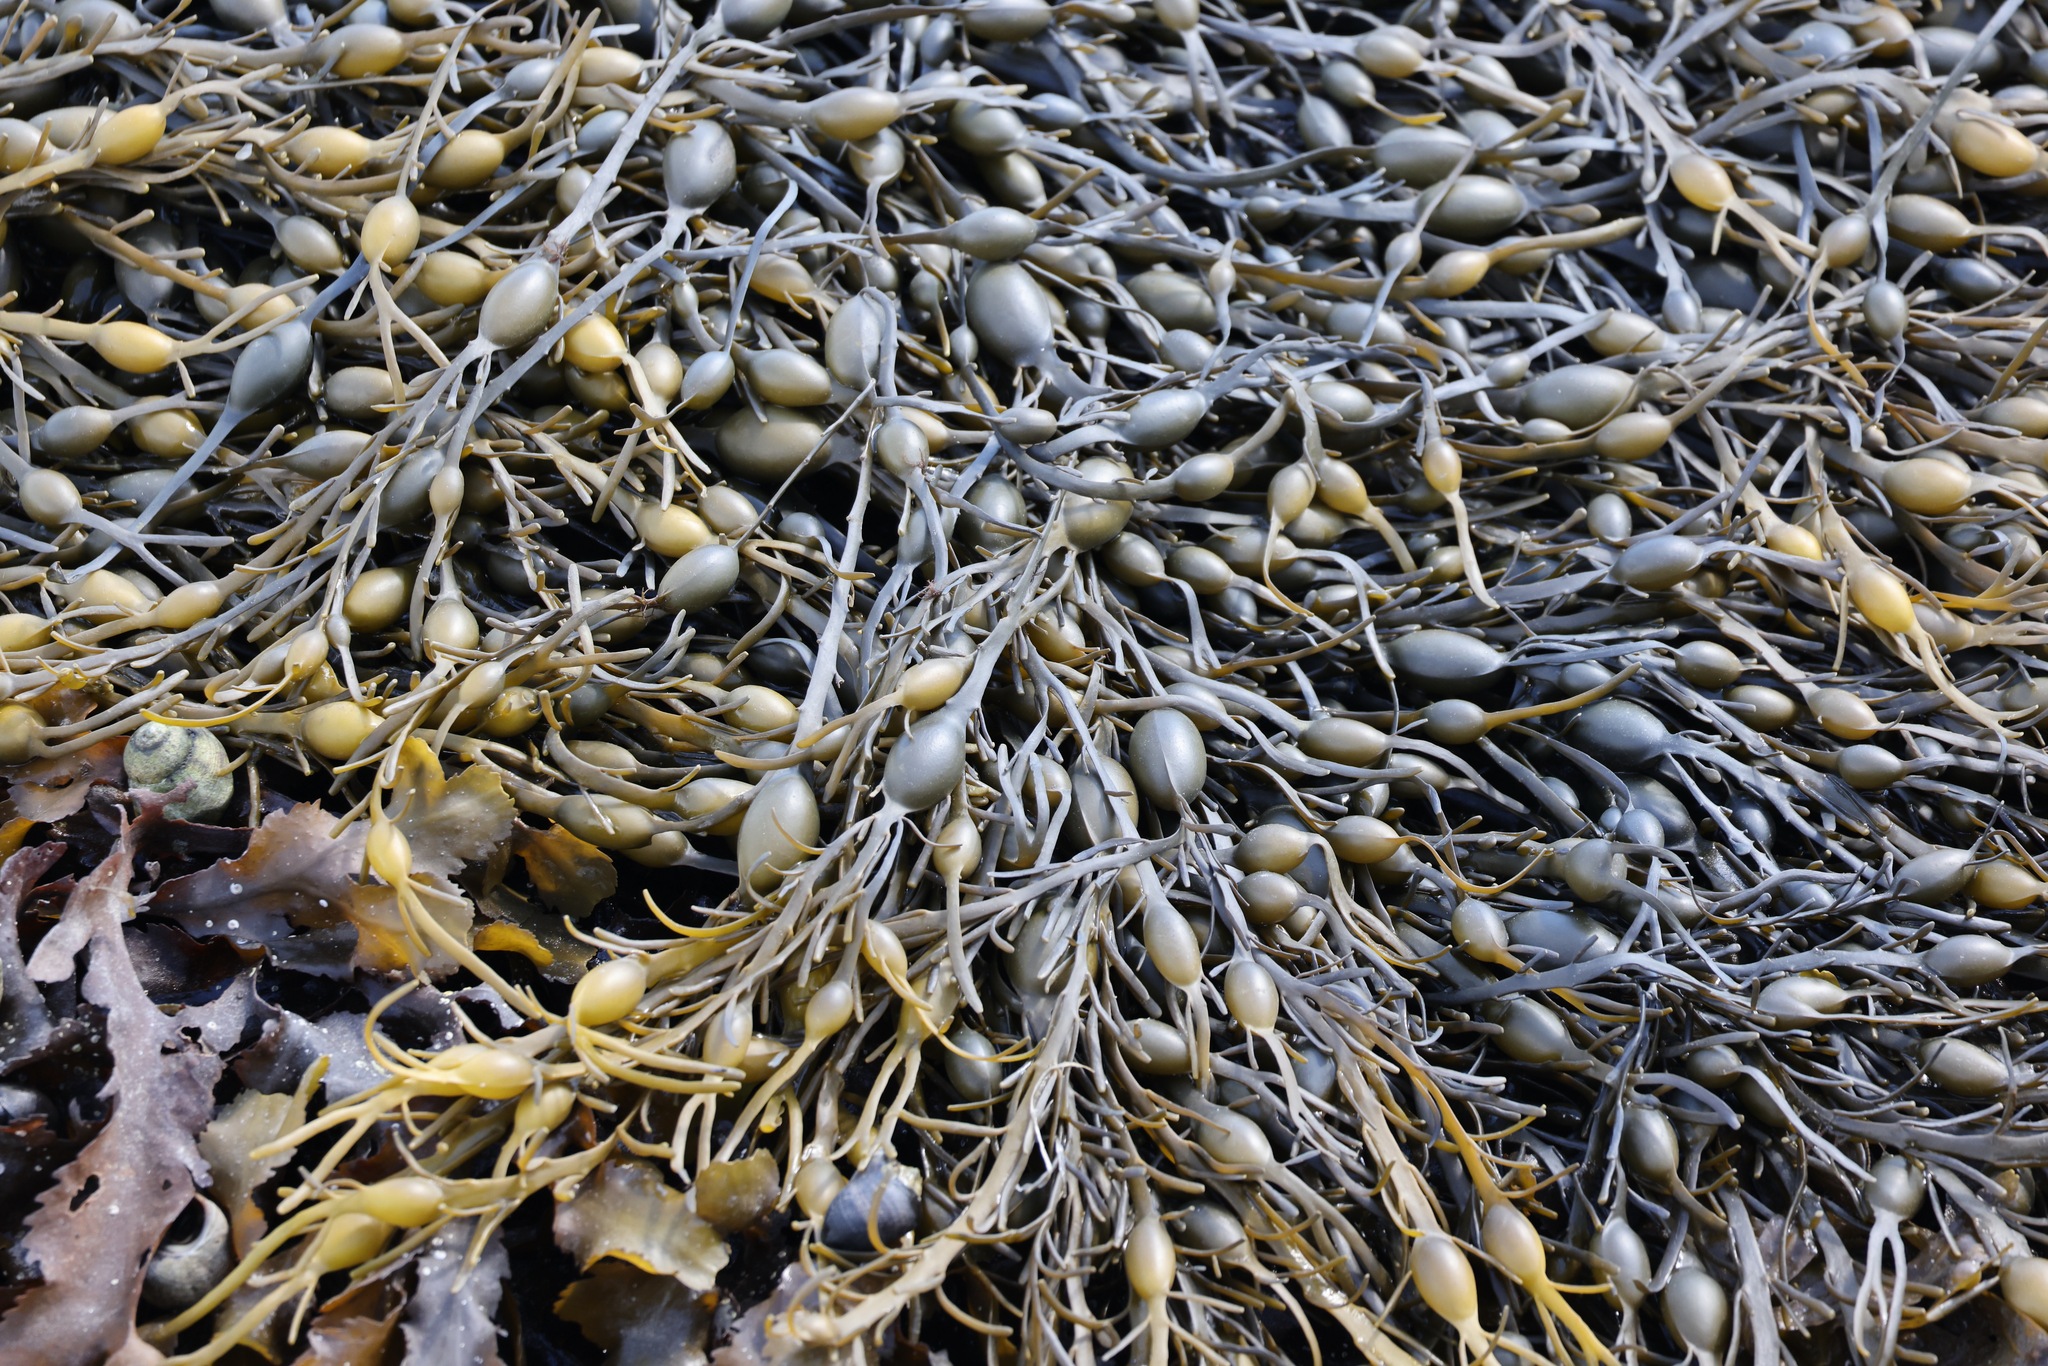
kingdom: Chromista
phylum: Ochrophyta
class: Phaeophyceae
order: Fucales
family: Fucaceae
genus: Ascophyllum
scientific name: Ascophyllum nodosum
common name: Knotted wrack
